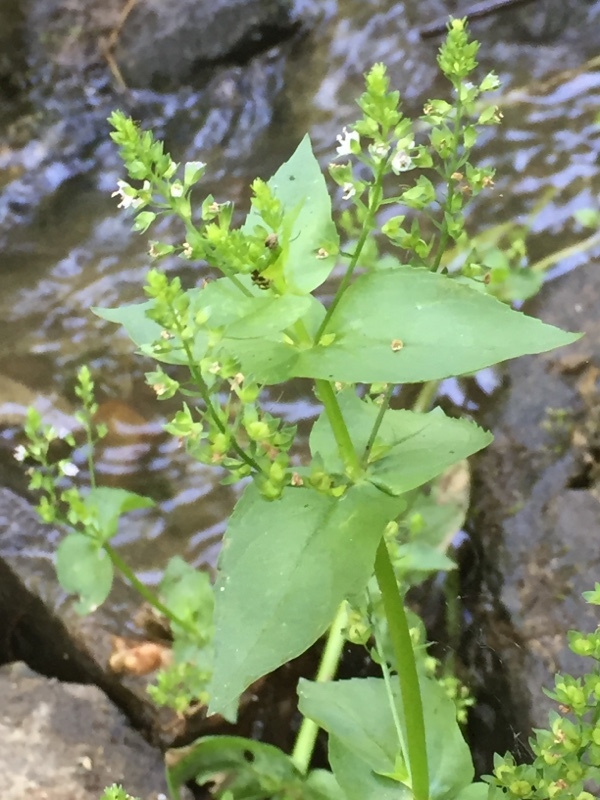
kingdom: Plantae
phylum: Tracheophyta
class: Magnoliopsida
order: Lamiales
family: Plantaginaceae
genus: Veronica
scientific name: Veronica anagallis-aquatica
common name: Water speedwell
